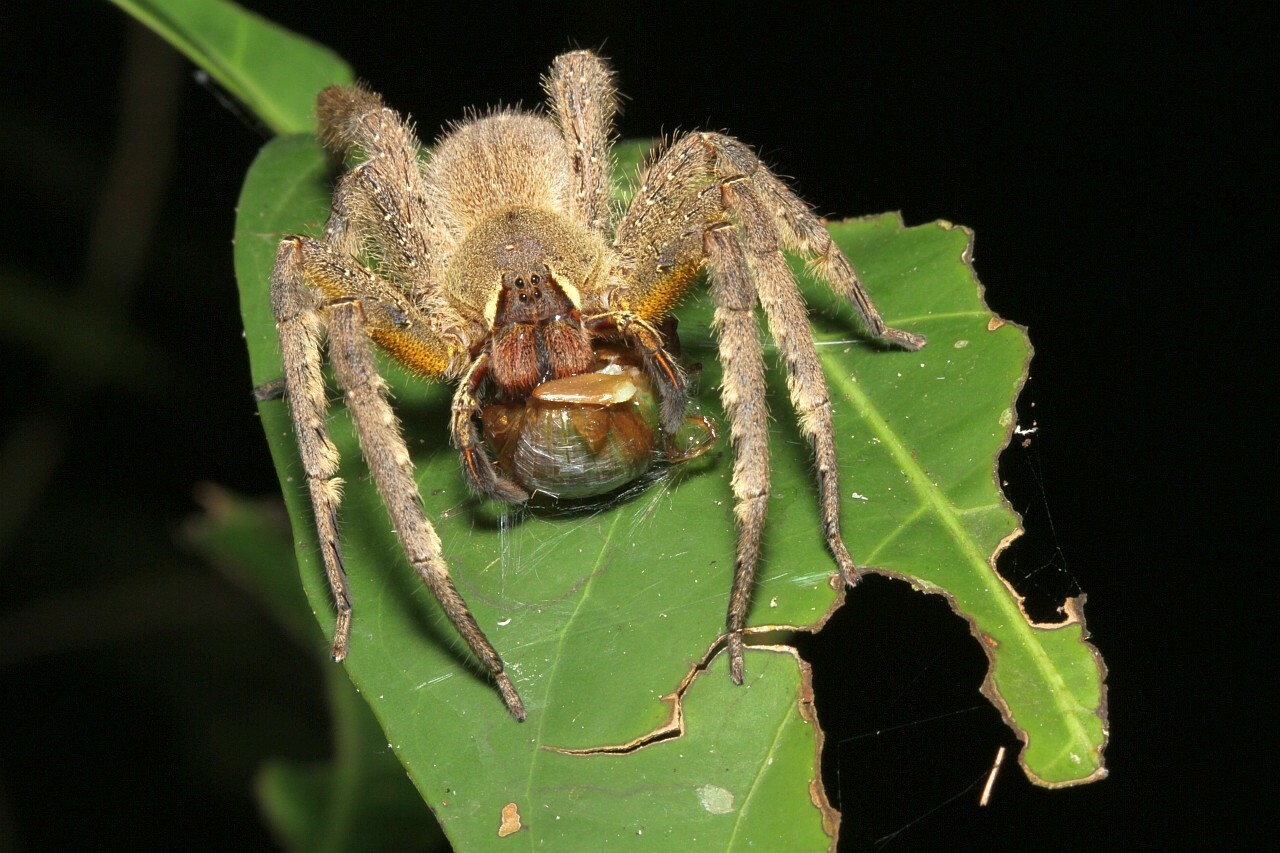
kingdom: Animalia
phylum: Arthropoda
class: Arachnida
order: Araneae
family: Ctenidae
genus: Phoneutria
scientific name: Phoneutria boliviensis
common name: Wandering spiders
